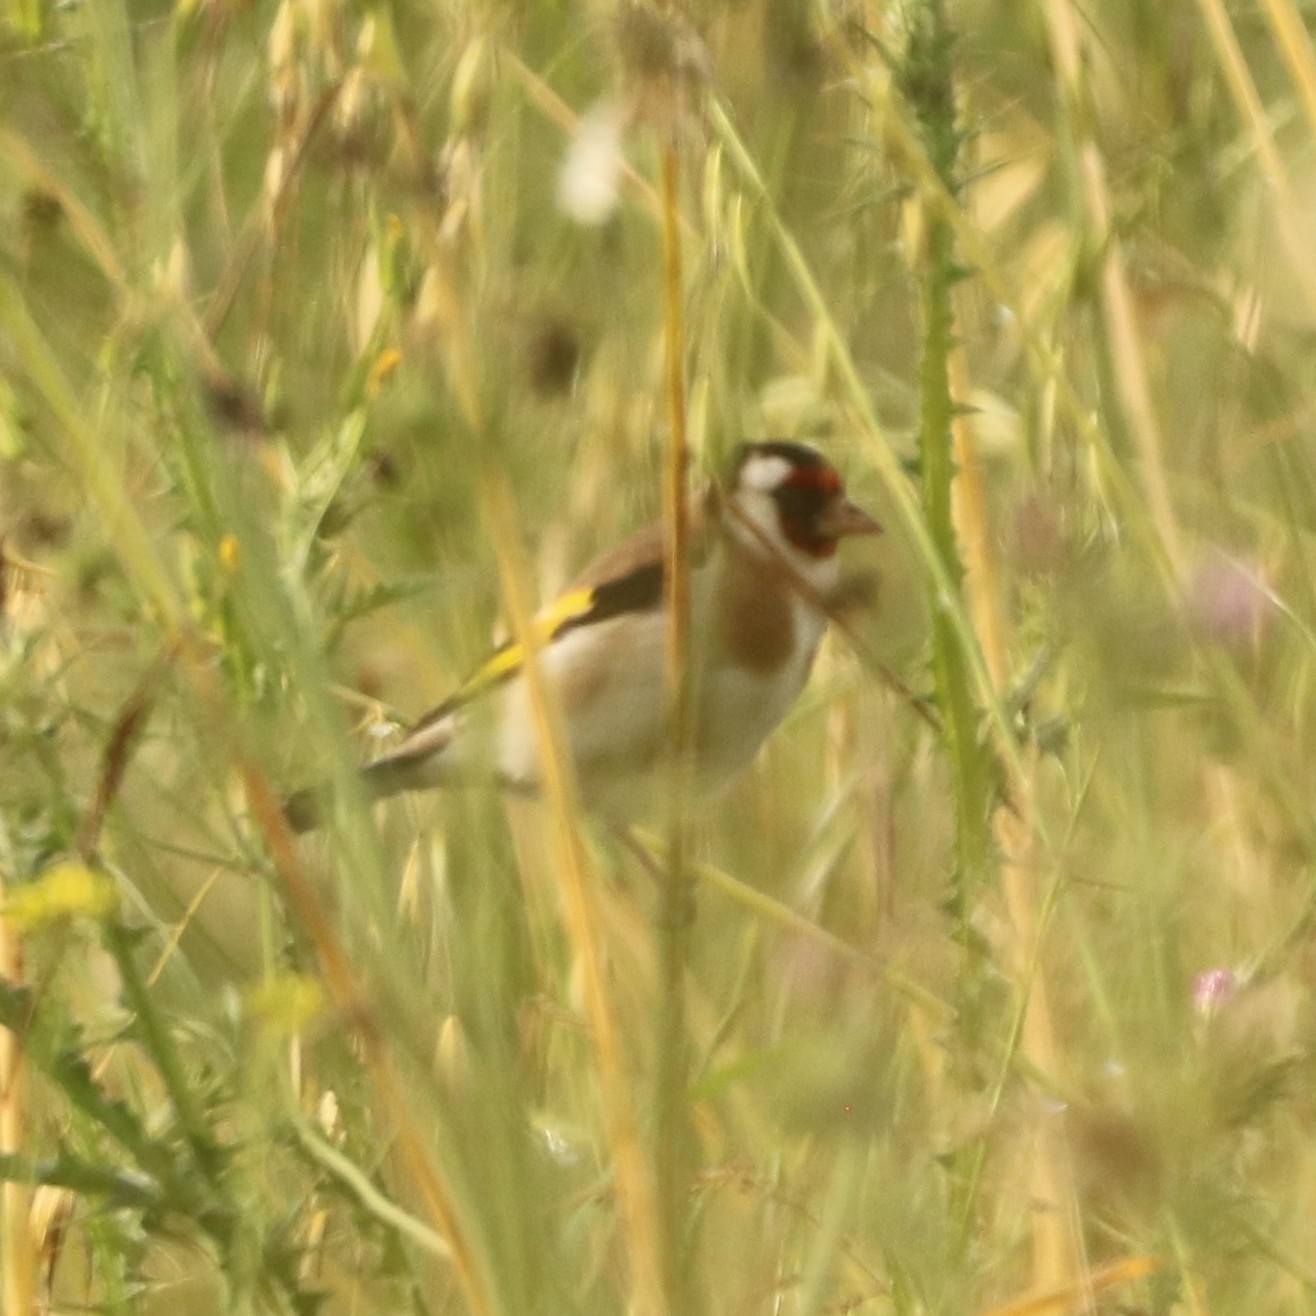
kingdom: Animalia
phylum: Chordata
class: Aves
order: Passeriformes
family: Fringillidae
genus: Carduelis
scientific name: Carduelis carduelis
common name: European goldfinch
